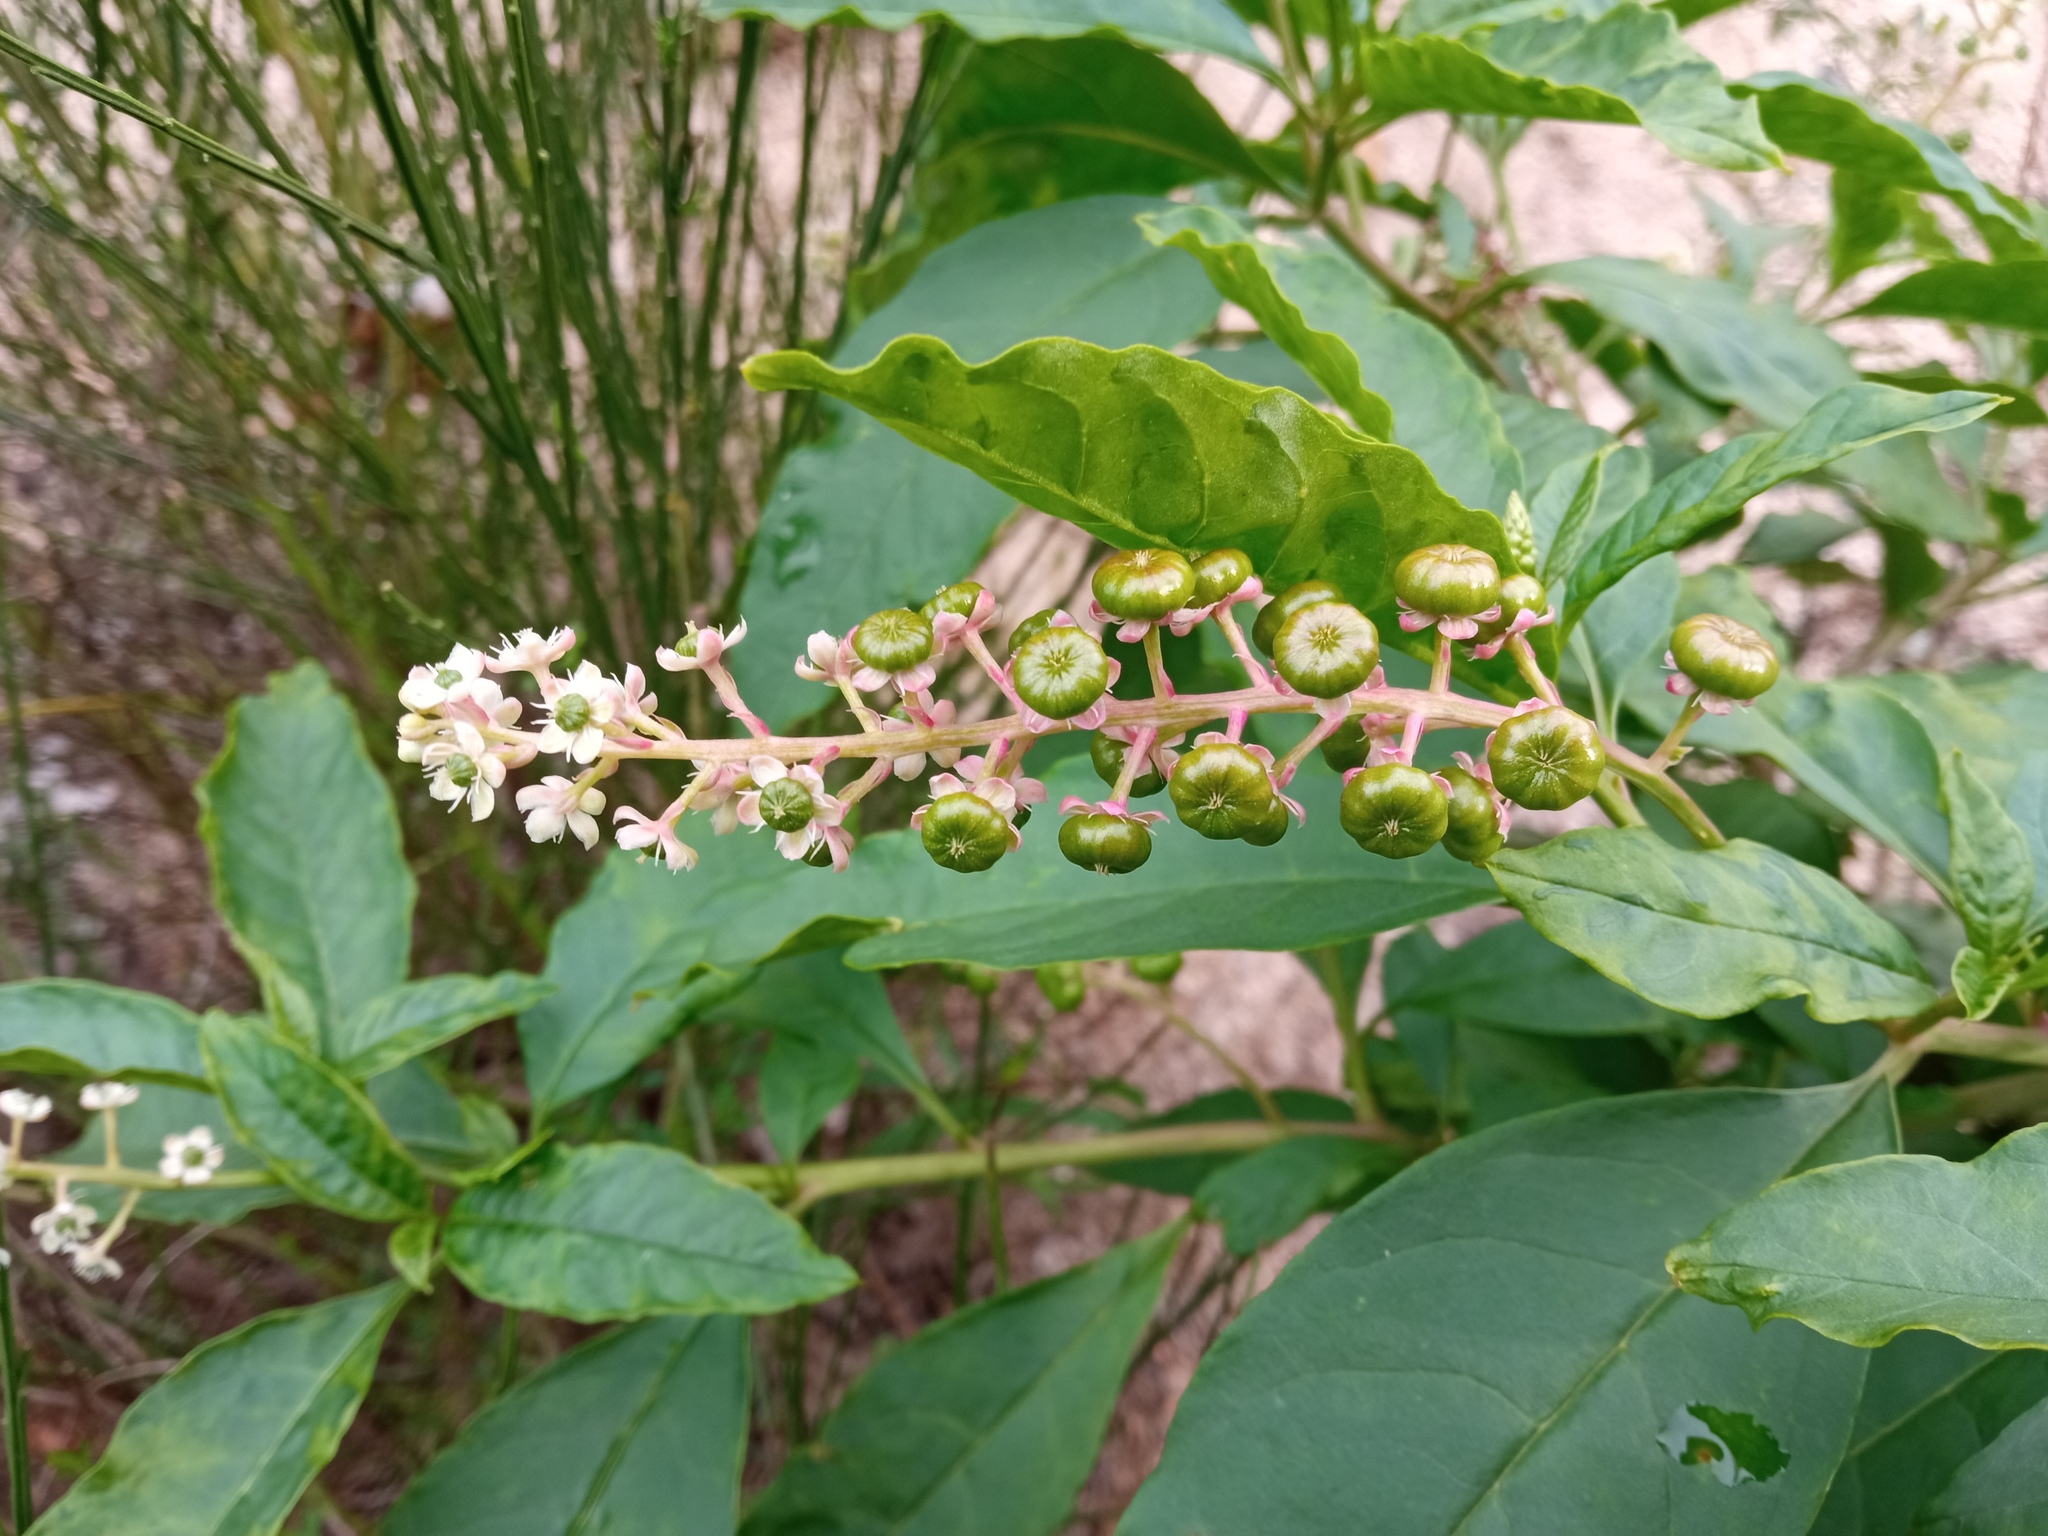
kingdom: Plantae
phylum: Tracheophyta
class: Magnoliopsida
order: Caryophyllales
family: Phytolaccaceae
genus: Phytolacca
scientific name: Phytolacca americana
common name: American pokeweed
